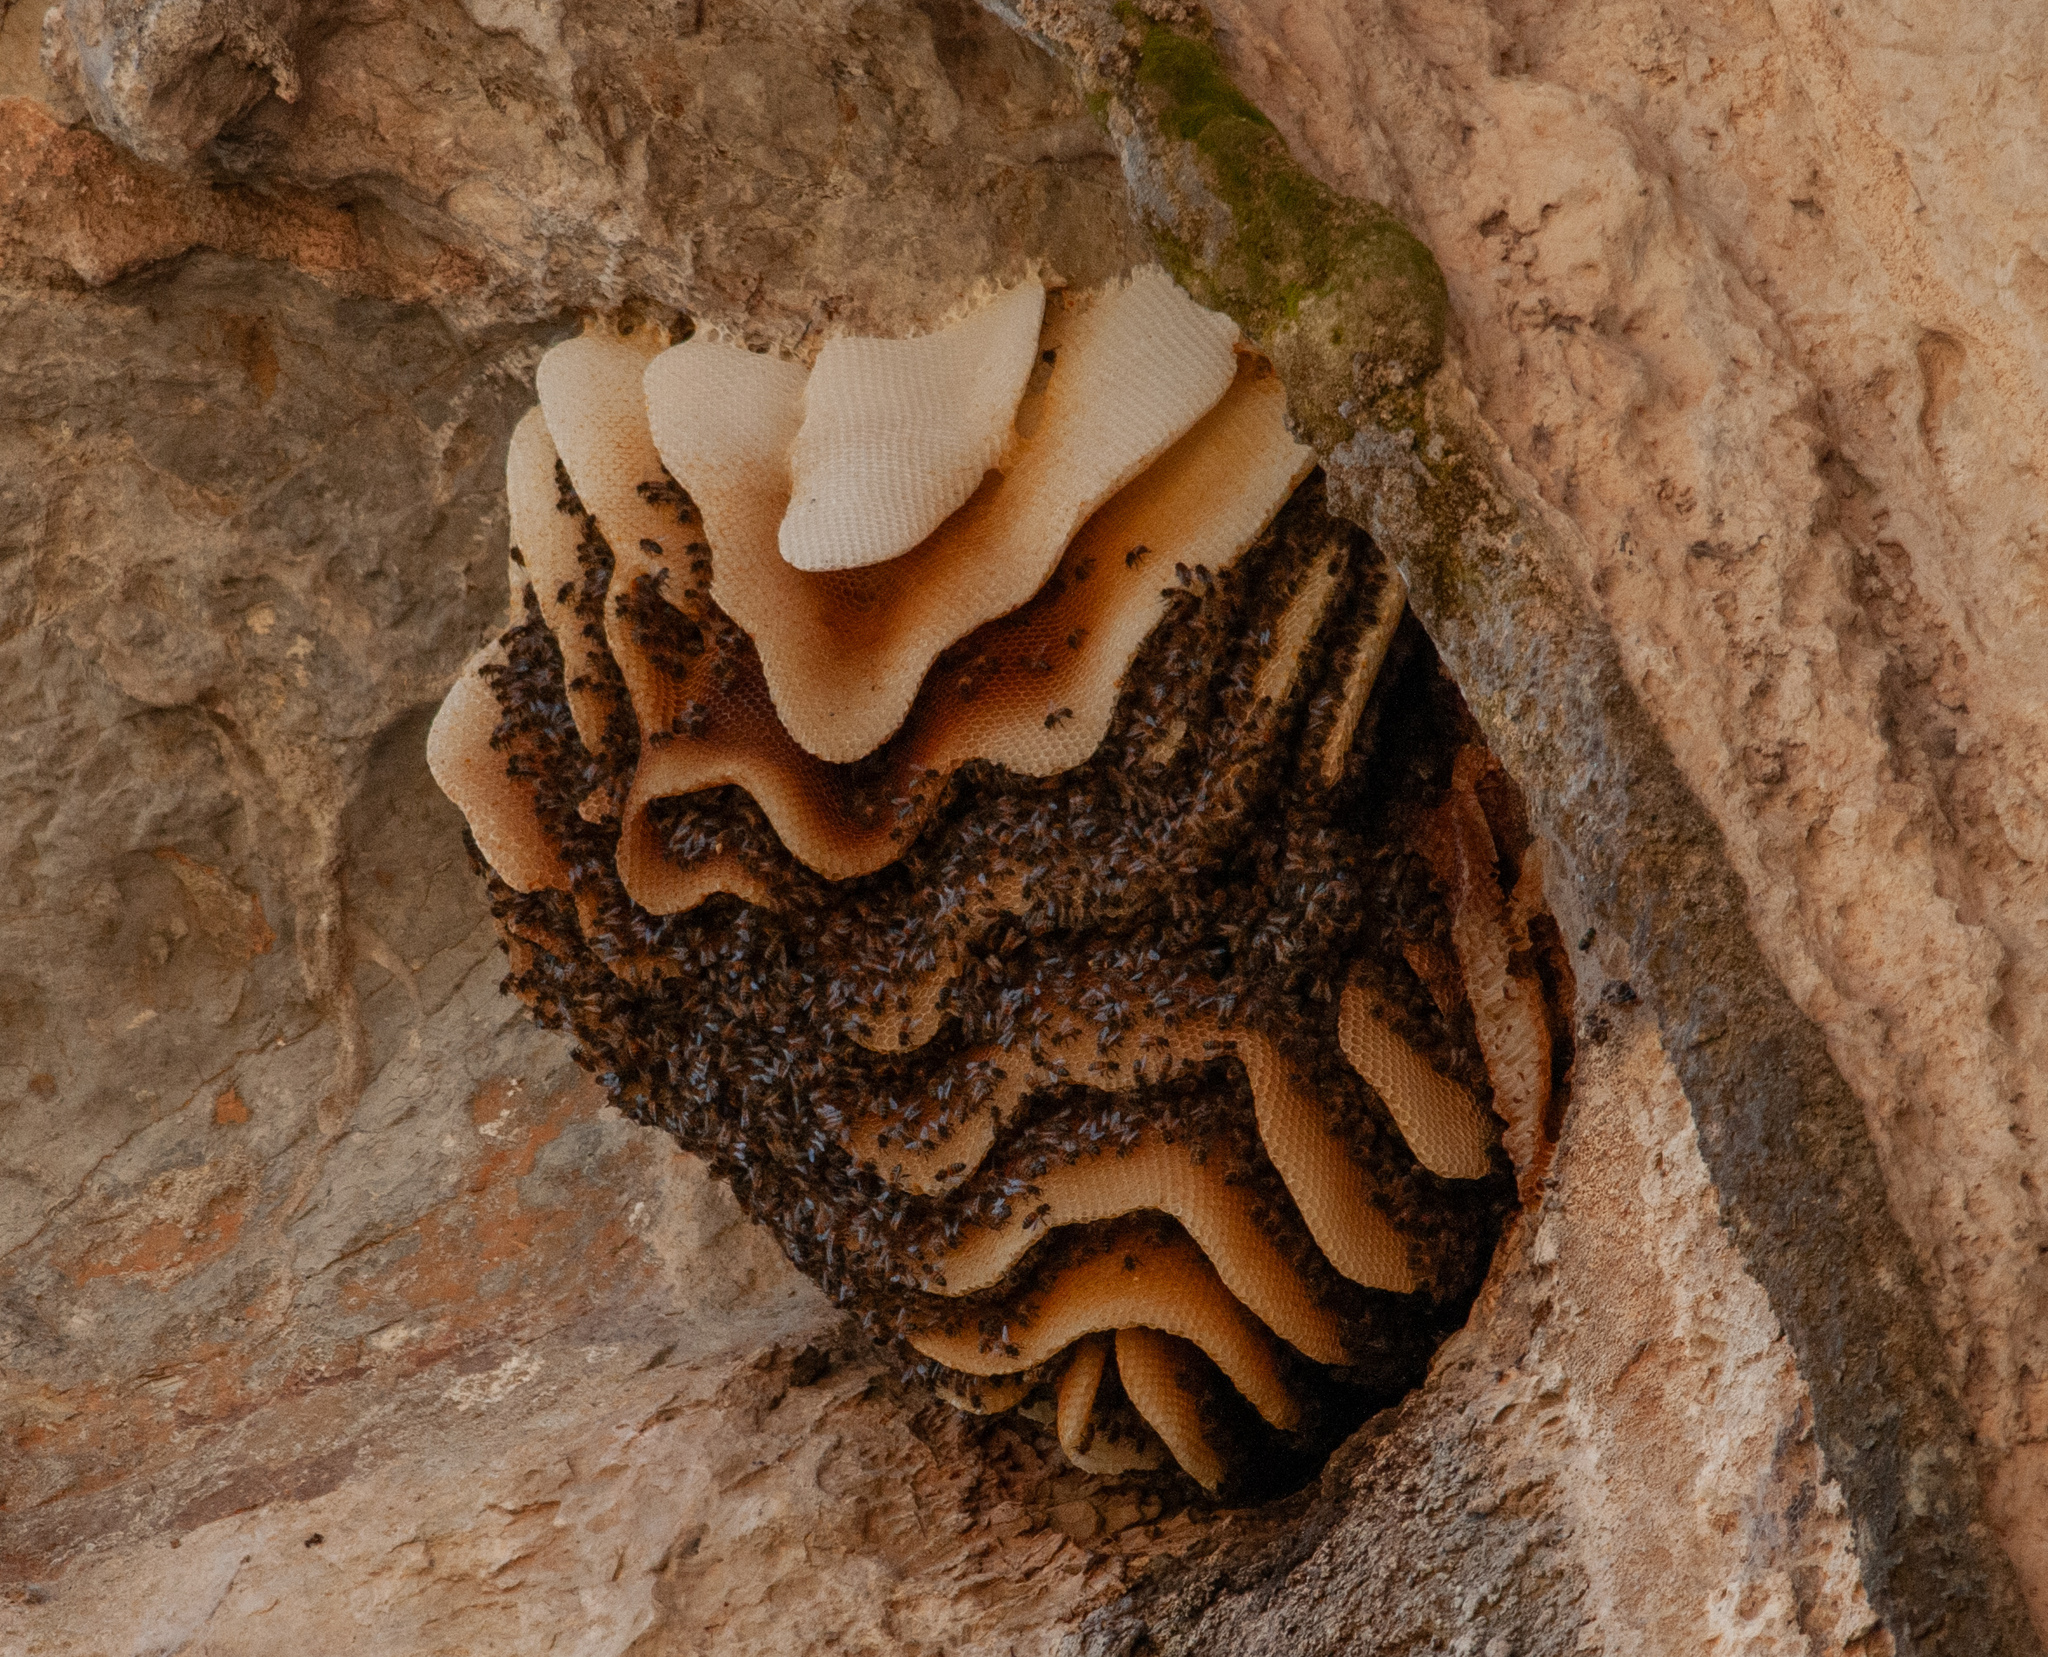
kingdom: Animalia
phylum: Arthropoda
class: Insecta
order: Hymenoptera
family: Apidae
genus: Apis
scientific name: Apis mellifera
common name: Honey bee
